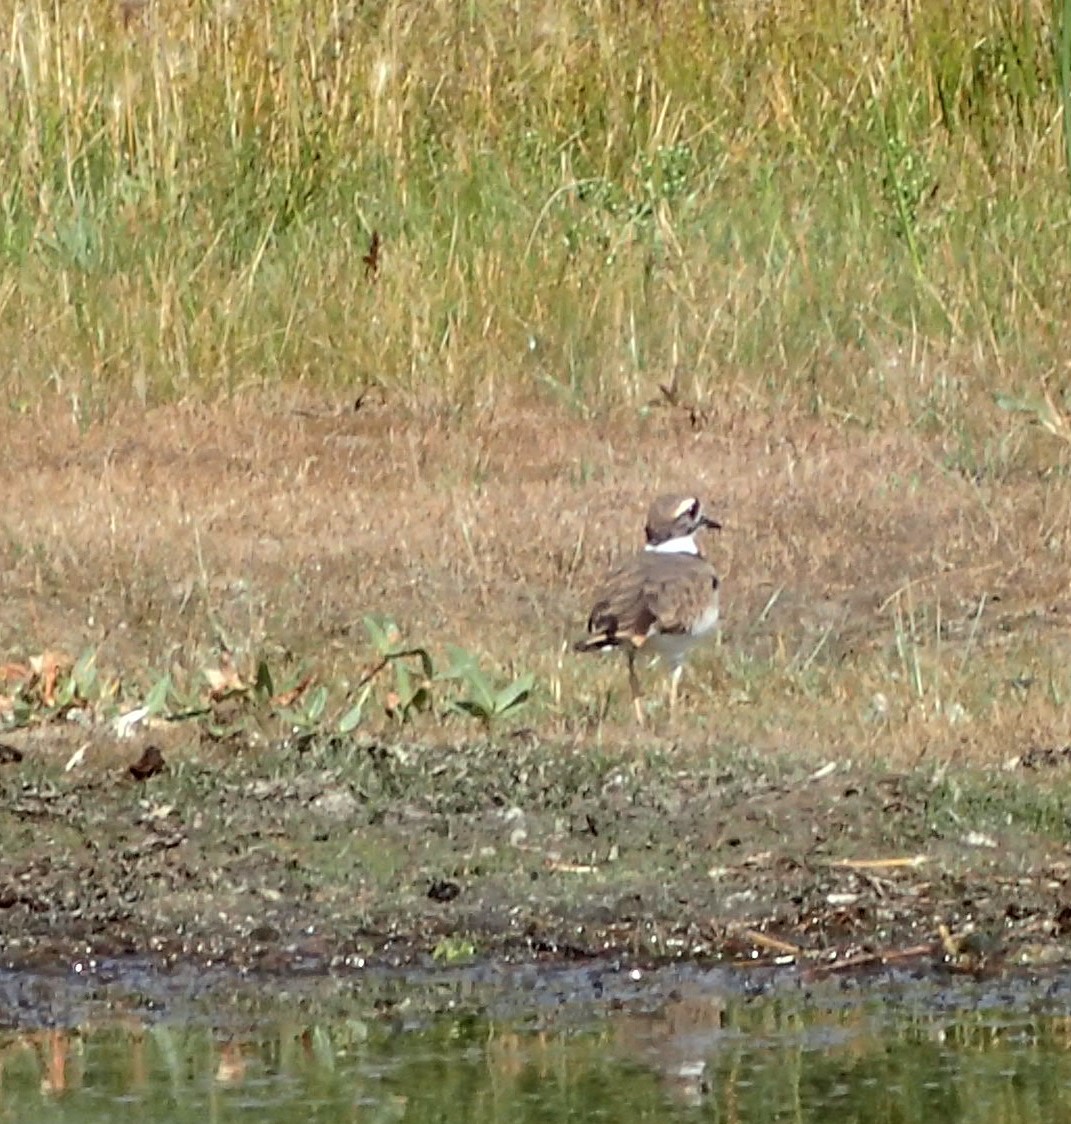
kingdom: Animalia
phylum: Chordata
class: Aves
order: Charadriiformes
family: Charadriidae
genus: Charadrius
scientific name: Charadrius vociferus
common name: Killdeer
